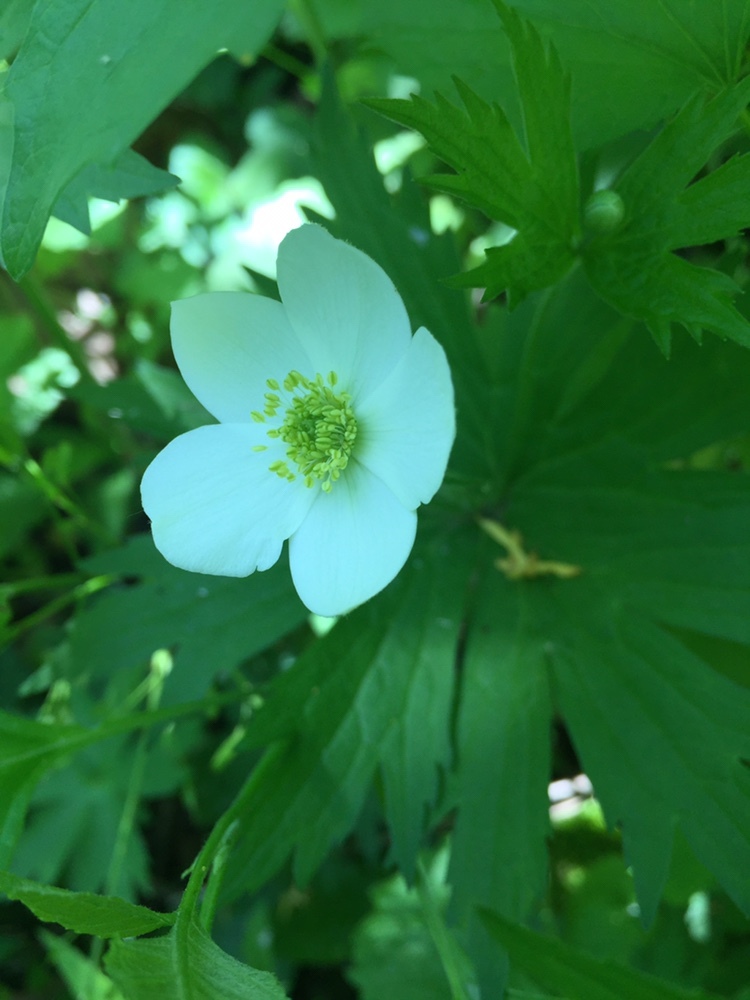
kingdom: Plantae
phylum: Tracheophyta
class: Magnoliopsida
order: Ranunculales
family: Ranunculaceae
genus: Anemonastrum
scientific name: Anemonastrum canadense
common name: Canada anemone
